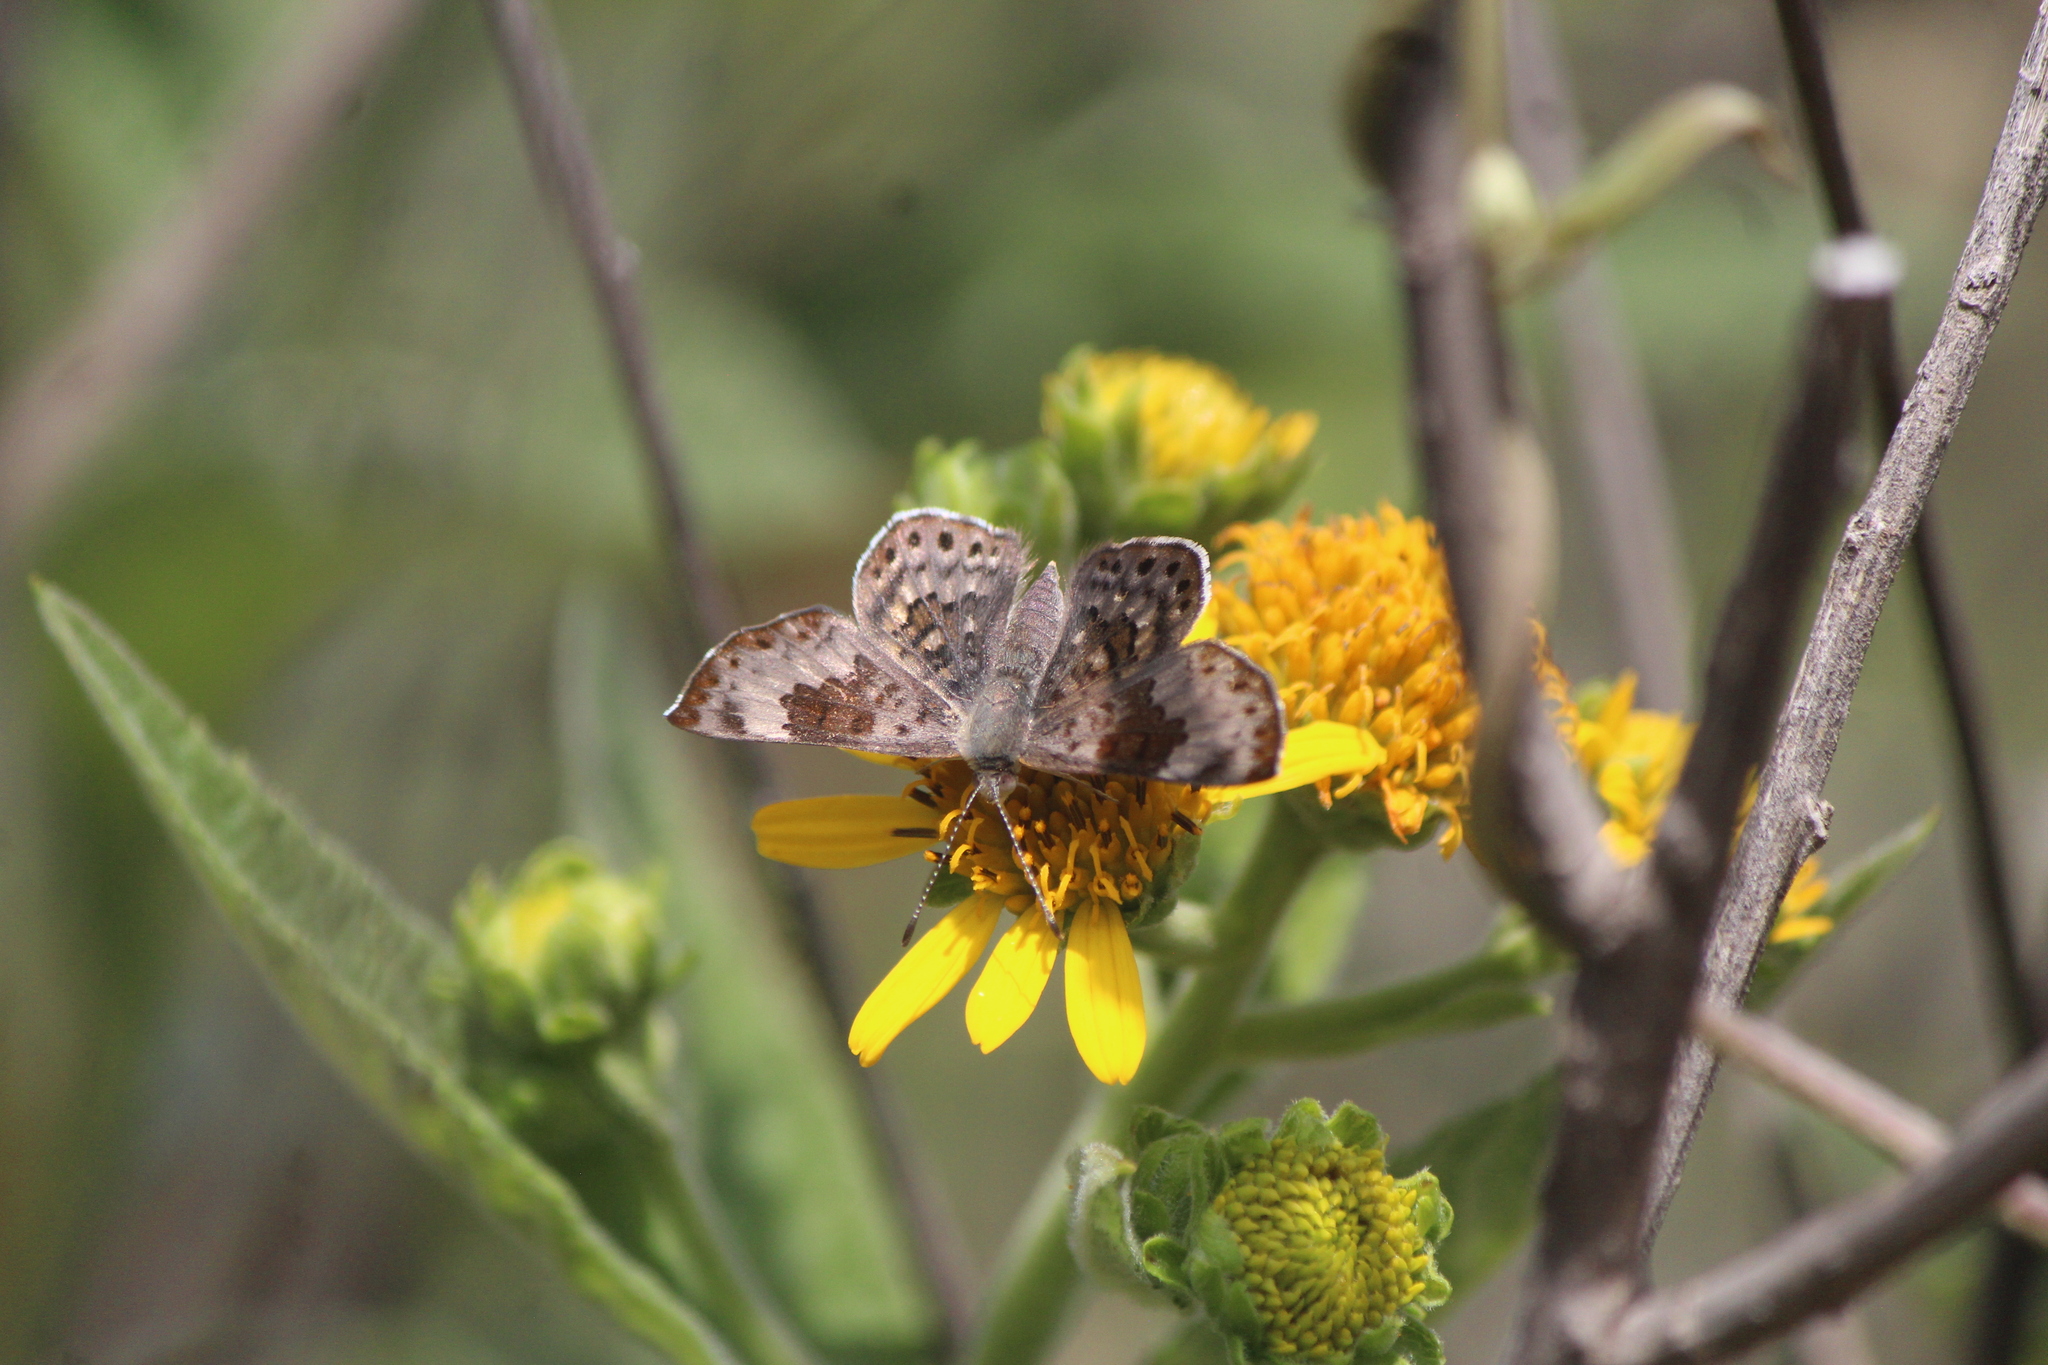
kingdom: Animalia
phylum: Arthropoda
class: Insecta
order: Lepidoptera
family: Riodinidae
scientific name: Riodinidae
